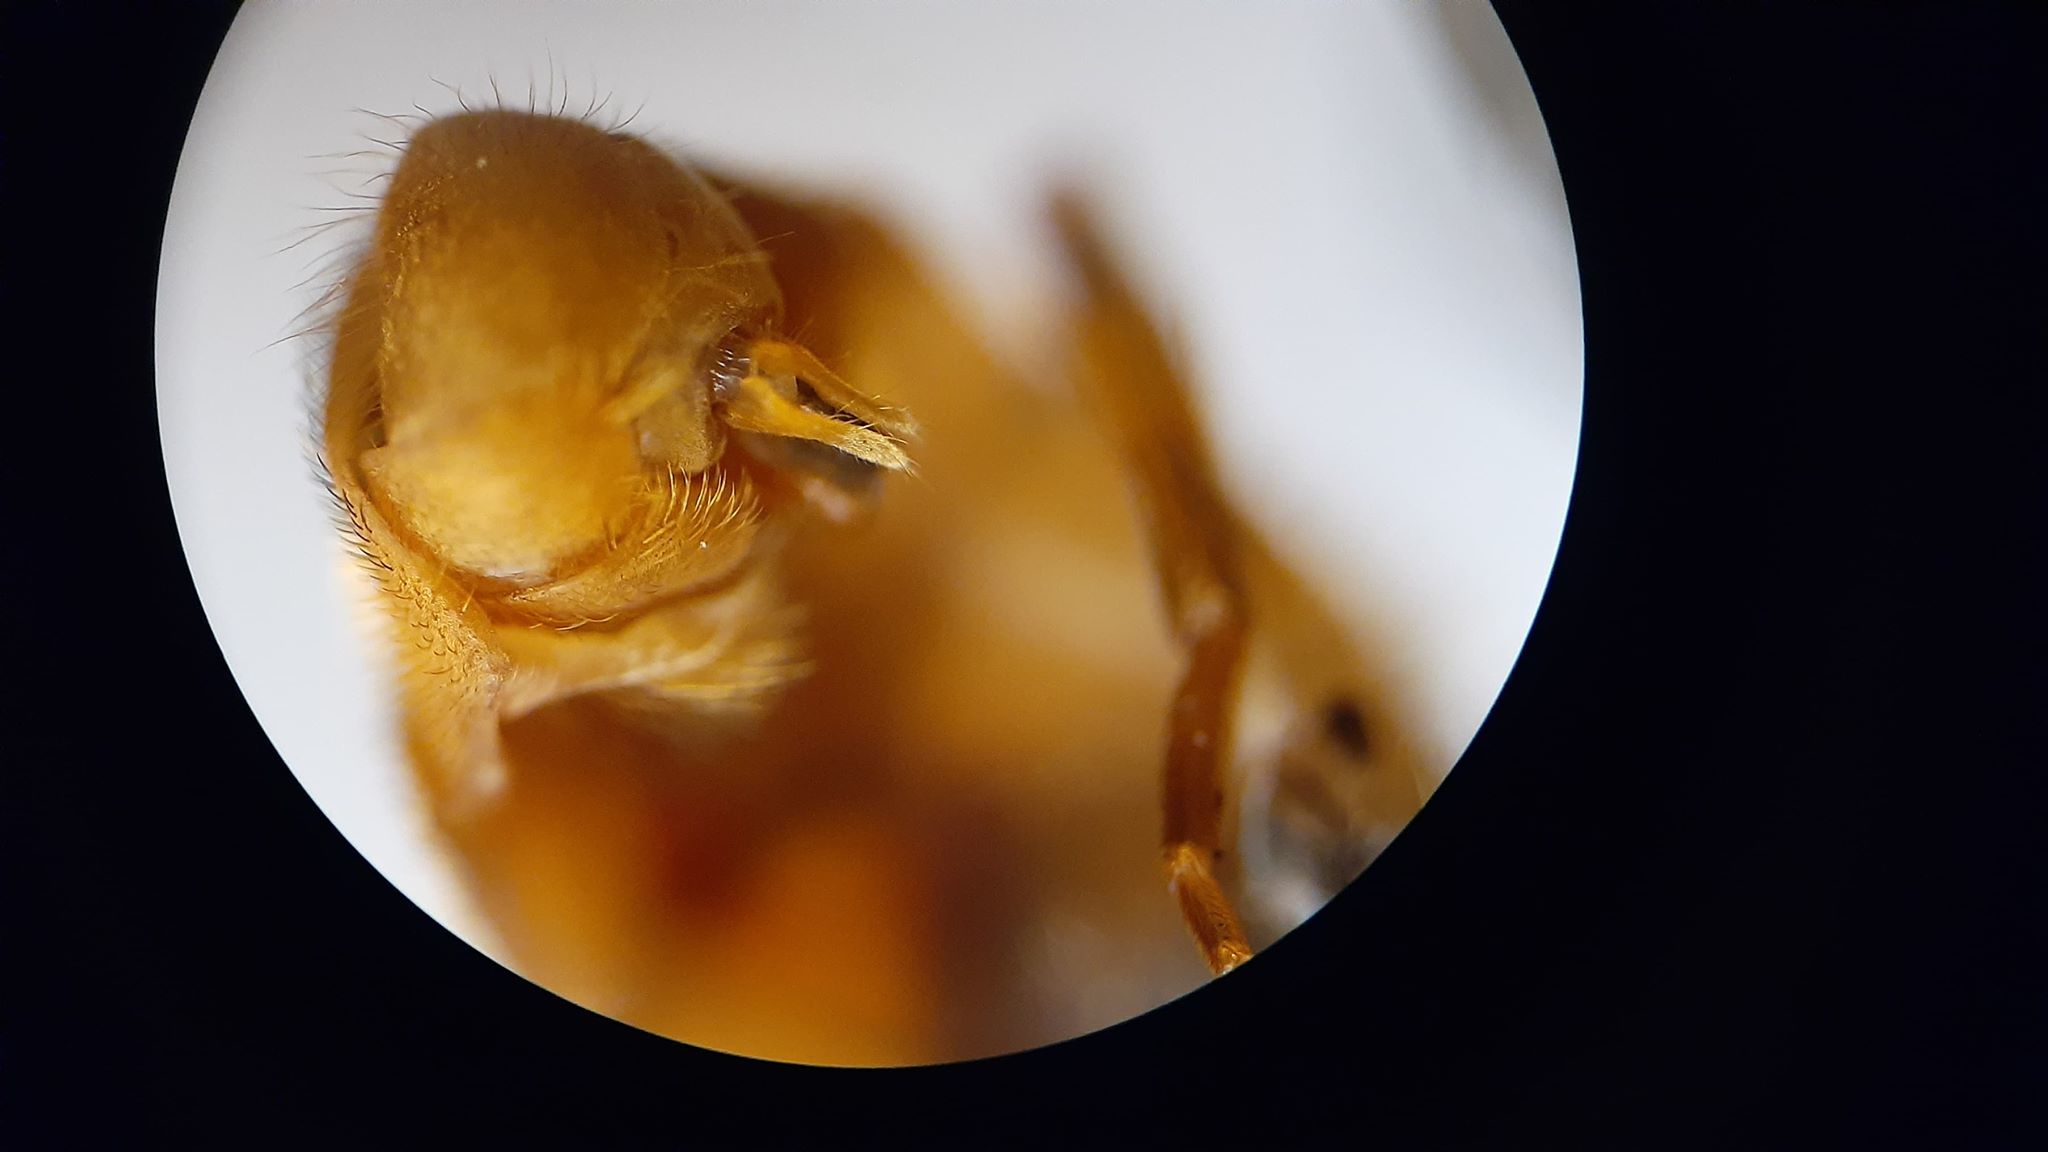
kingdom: Animalia
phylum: Arthropoda
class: Insecta
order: Diptera
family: Syrphidae
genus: Parhelophilus
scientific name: Parhelophilus laetus
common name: Common bog fly
